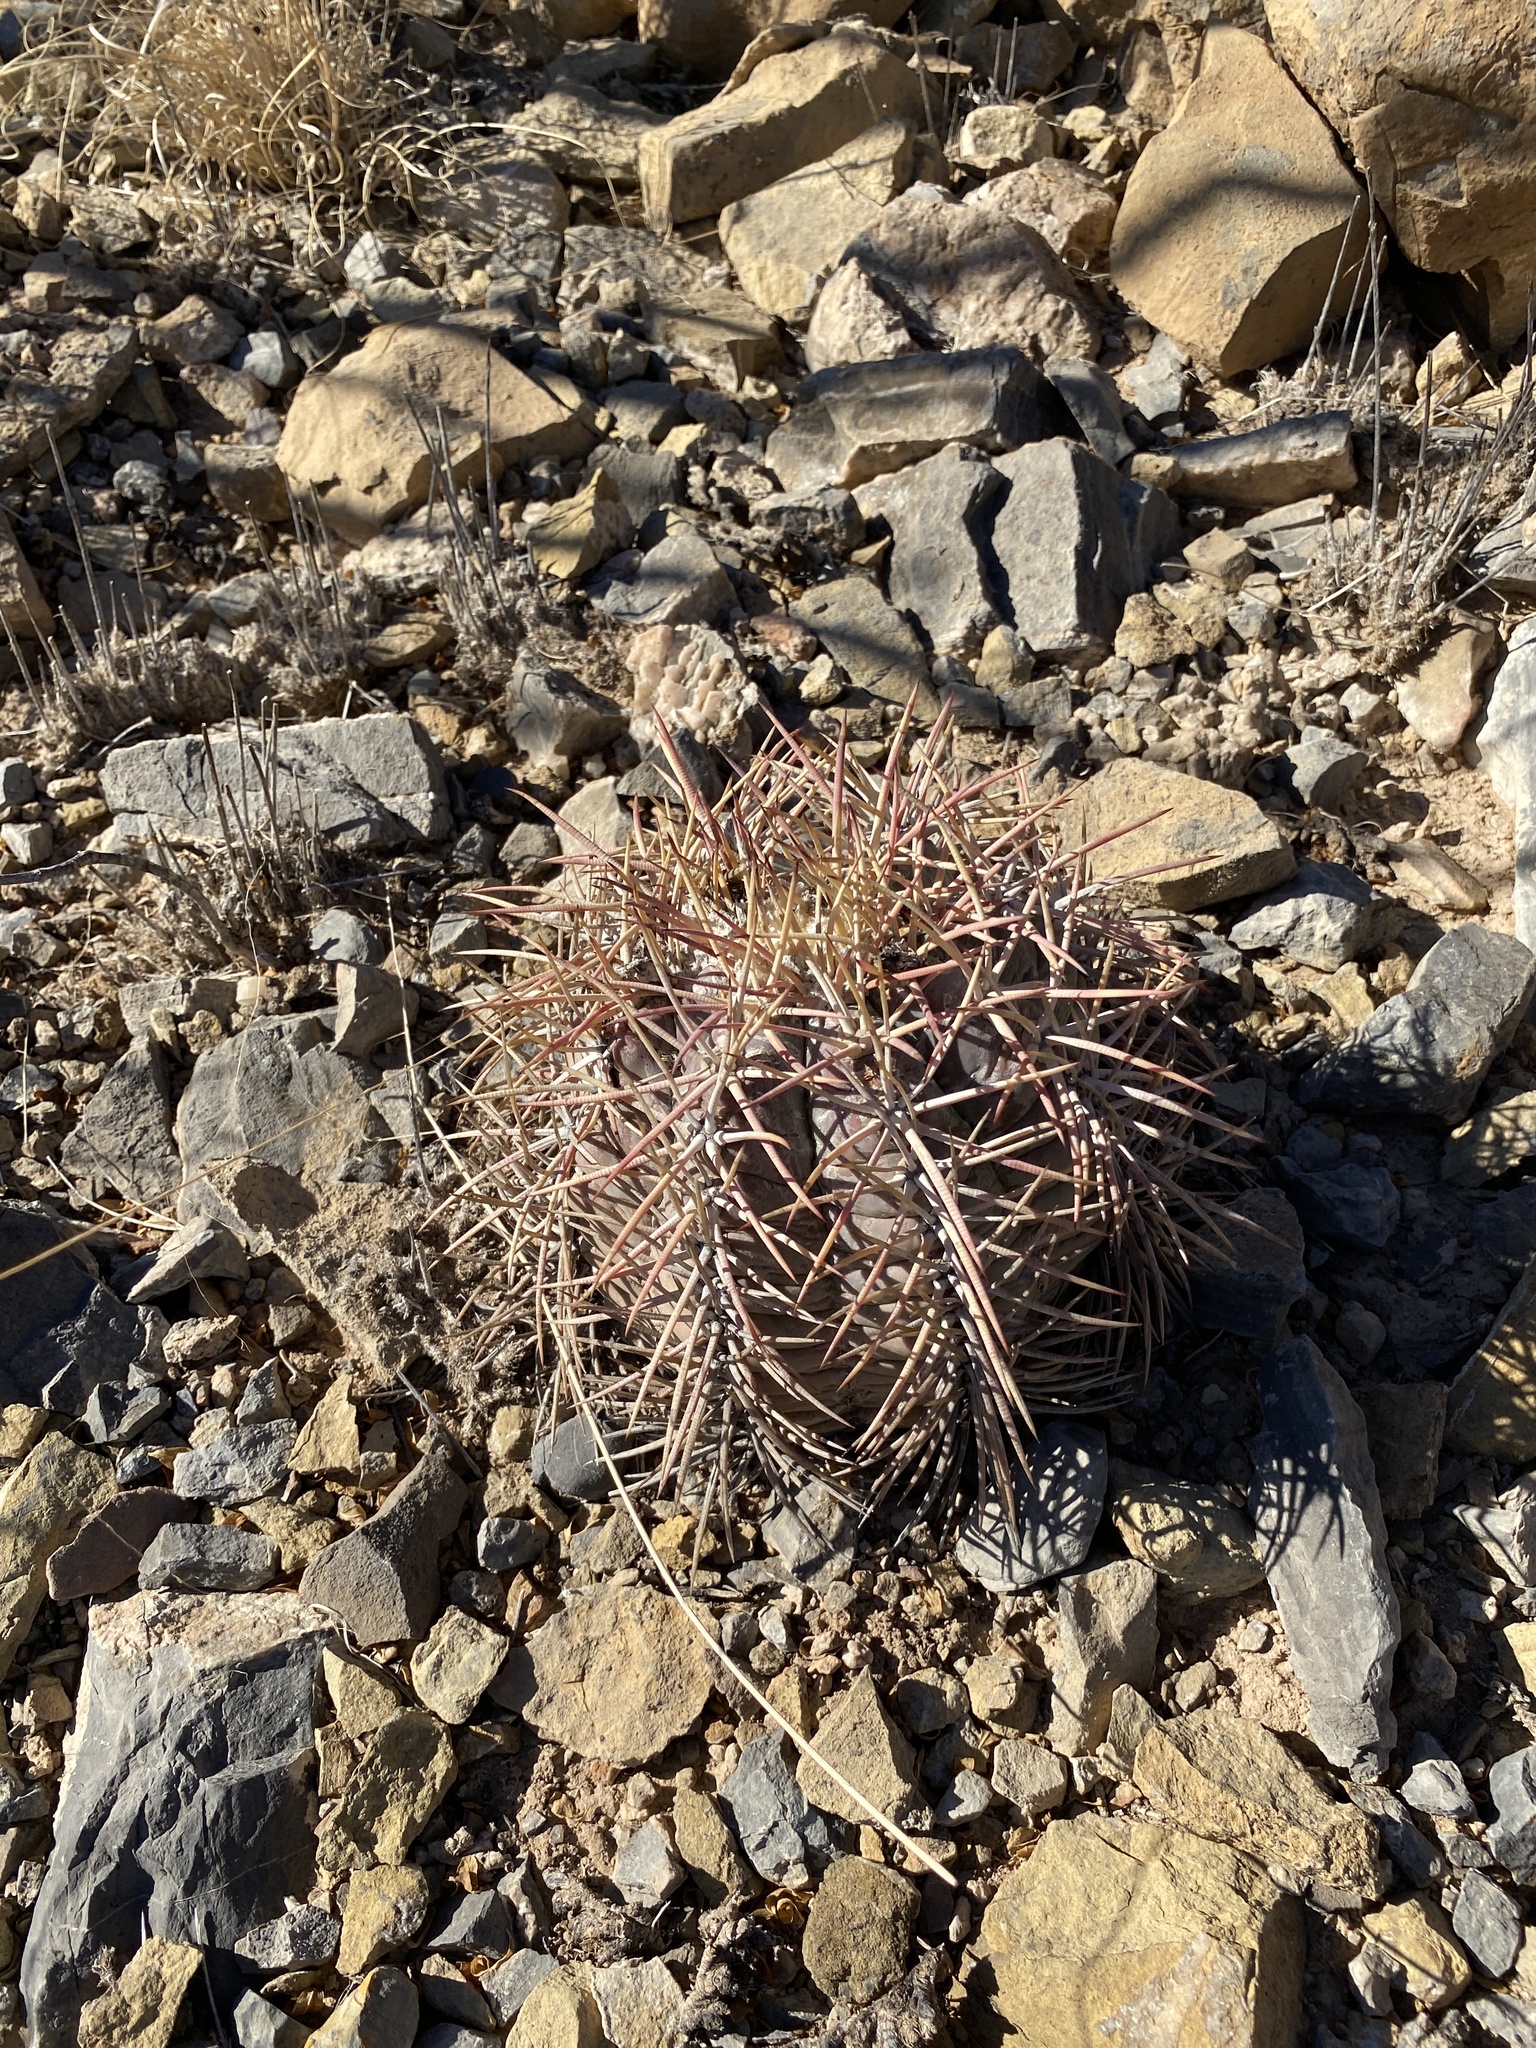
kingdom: Plantae
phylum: Tracheophyta
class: Magnoliopsida
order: Caryophyllales
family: Cactaceae
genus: Echinocactus
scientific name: Echinocactus horizonthalonius
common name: Devilshead
